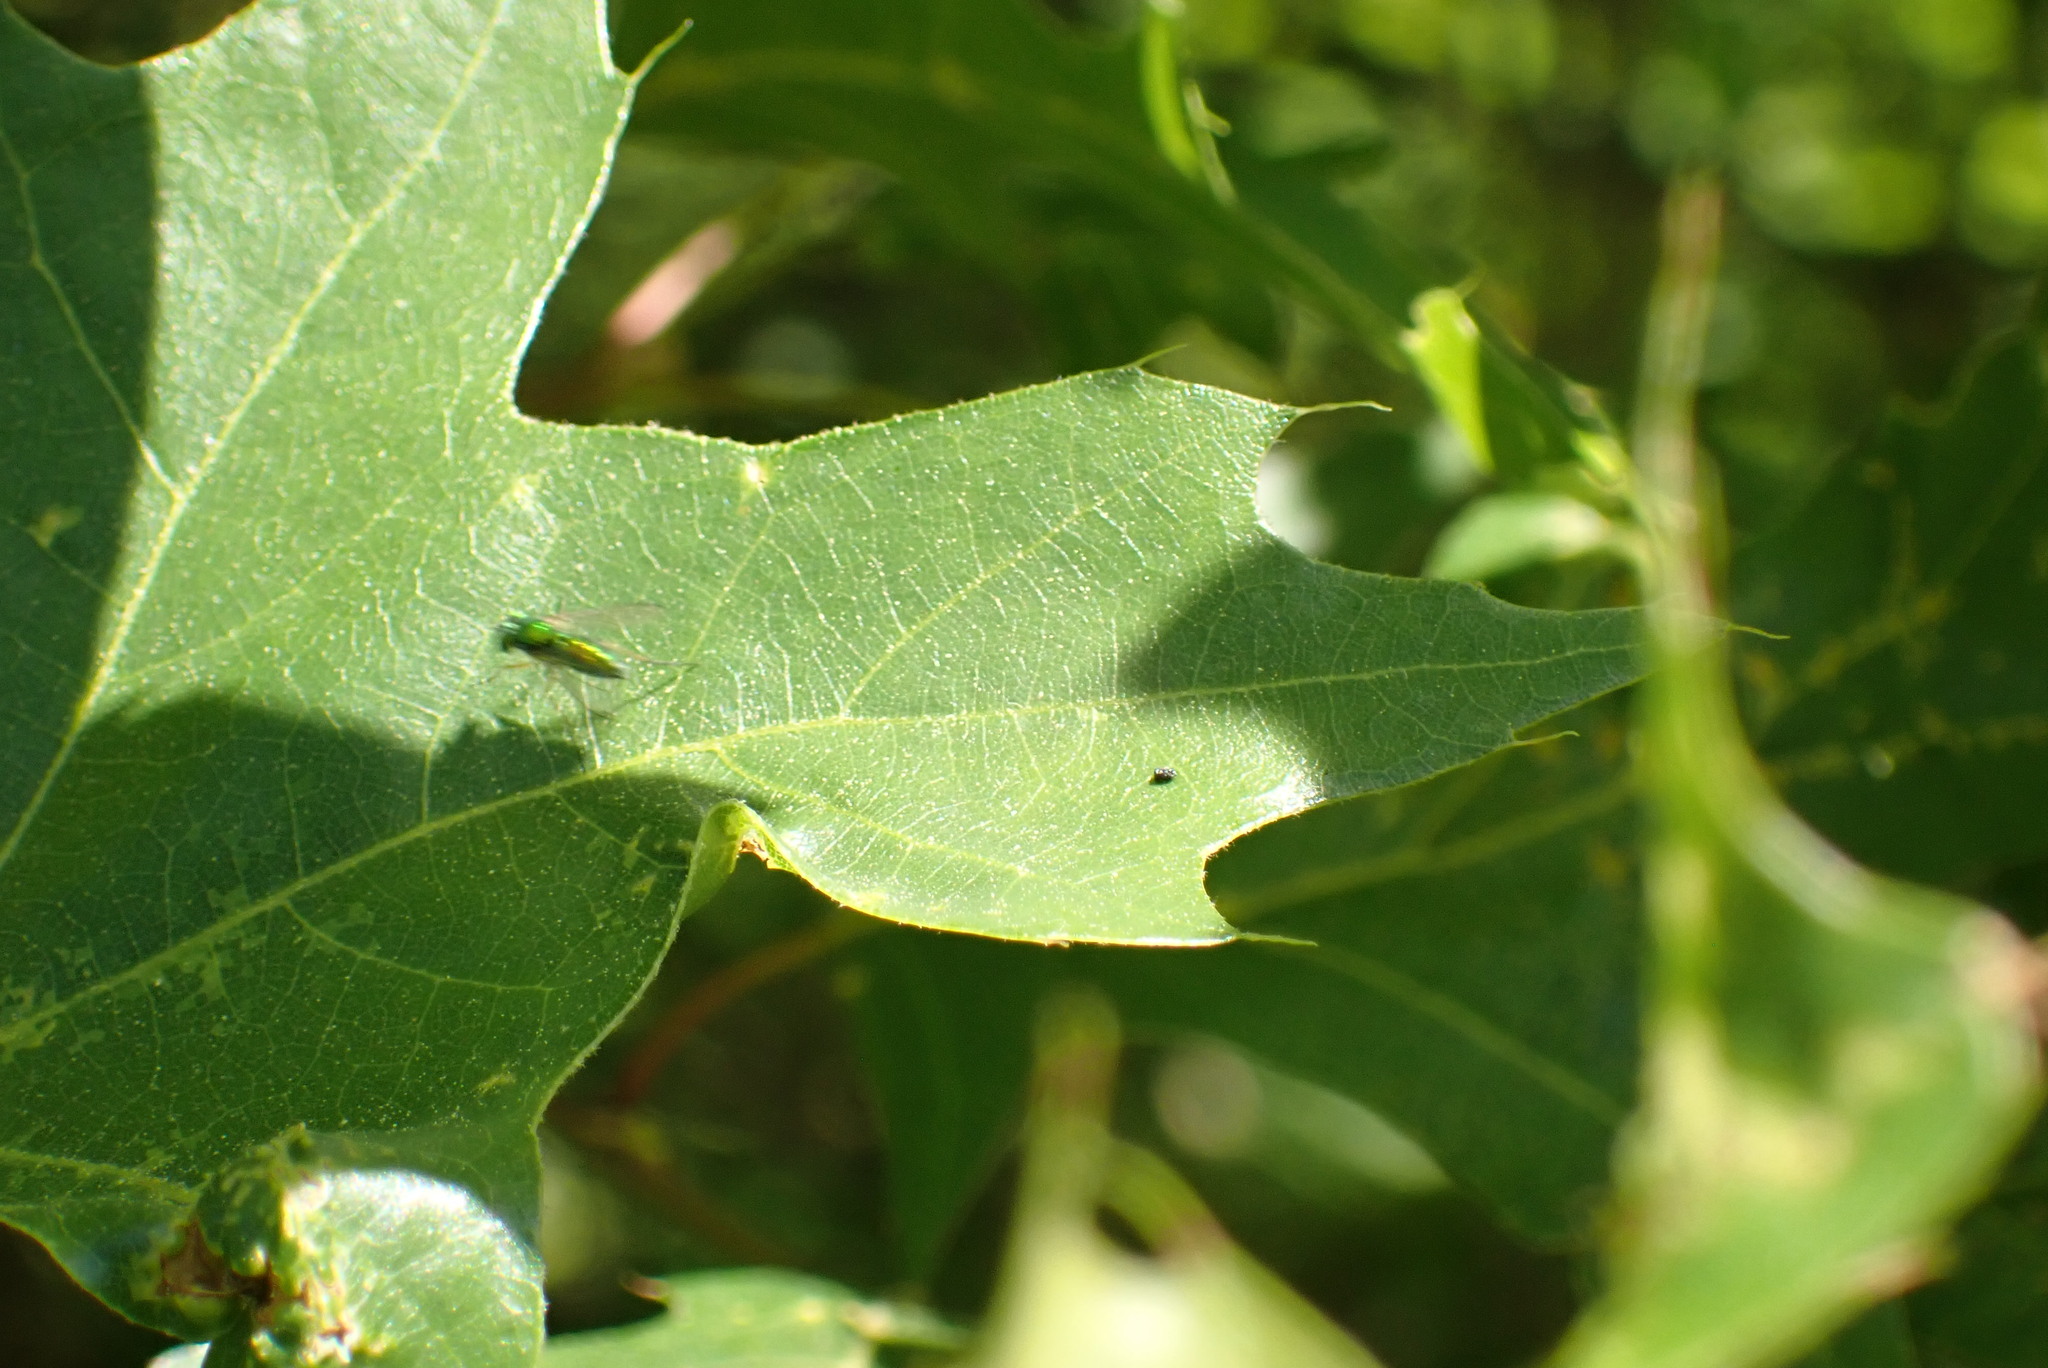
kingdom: Animalia
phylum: Arthropoda
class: Insecta
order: Diptera
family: Dolichopodidae
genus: Condylostylus
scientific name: Condylostylus
